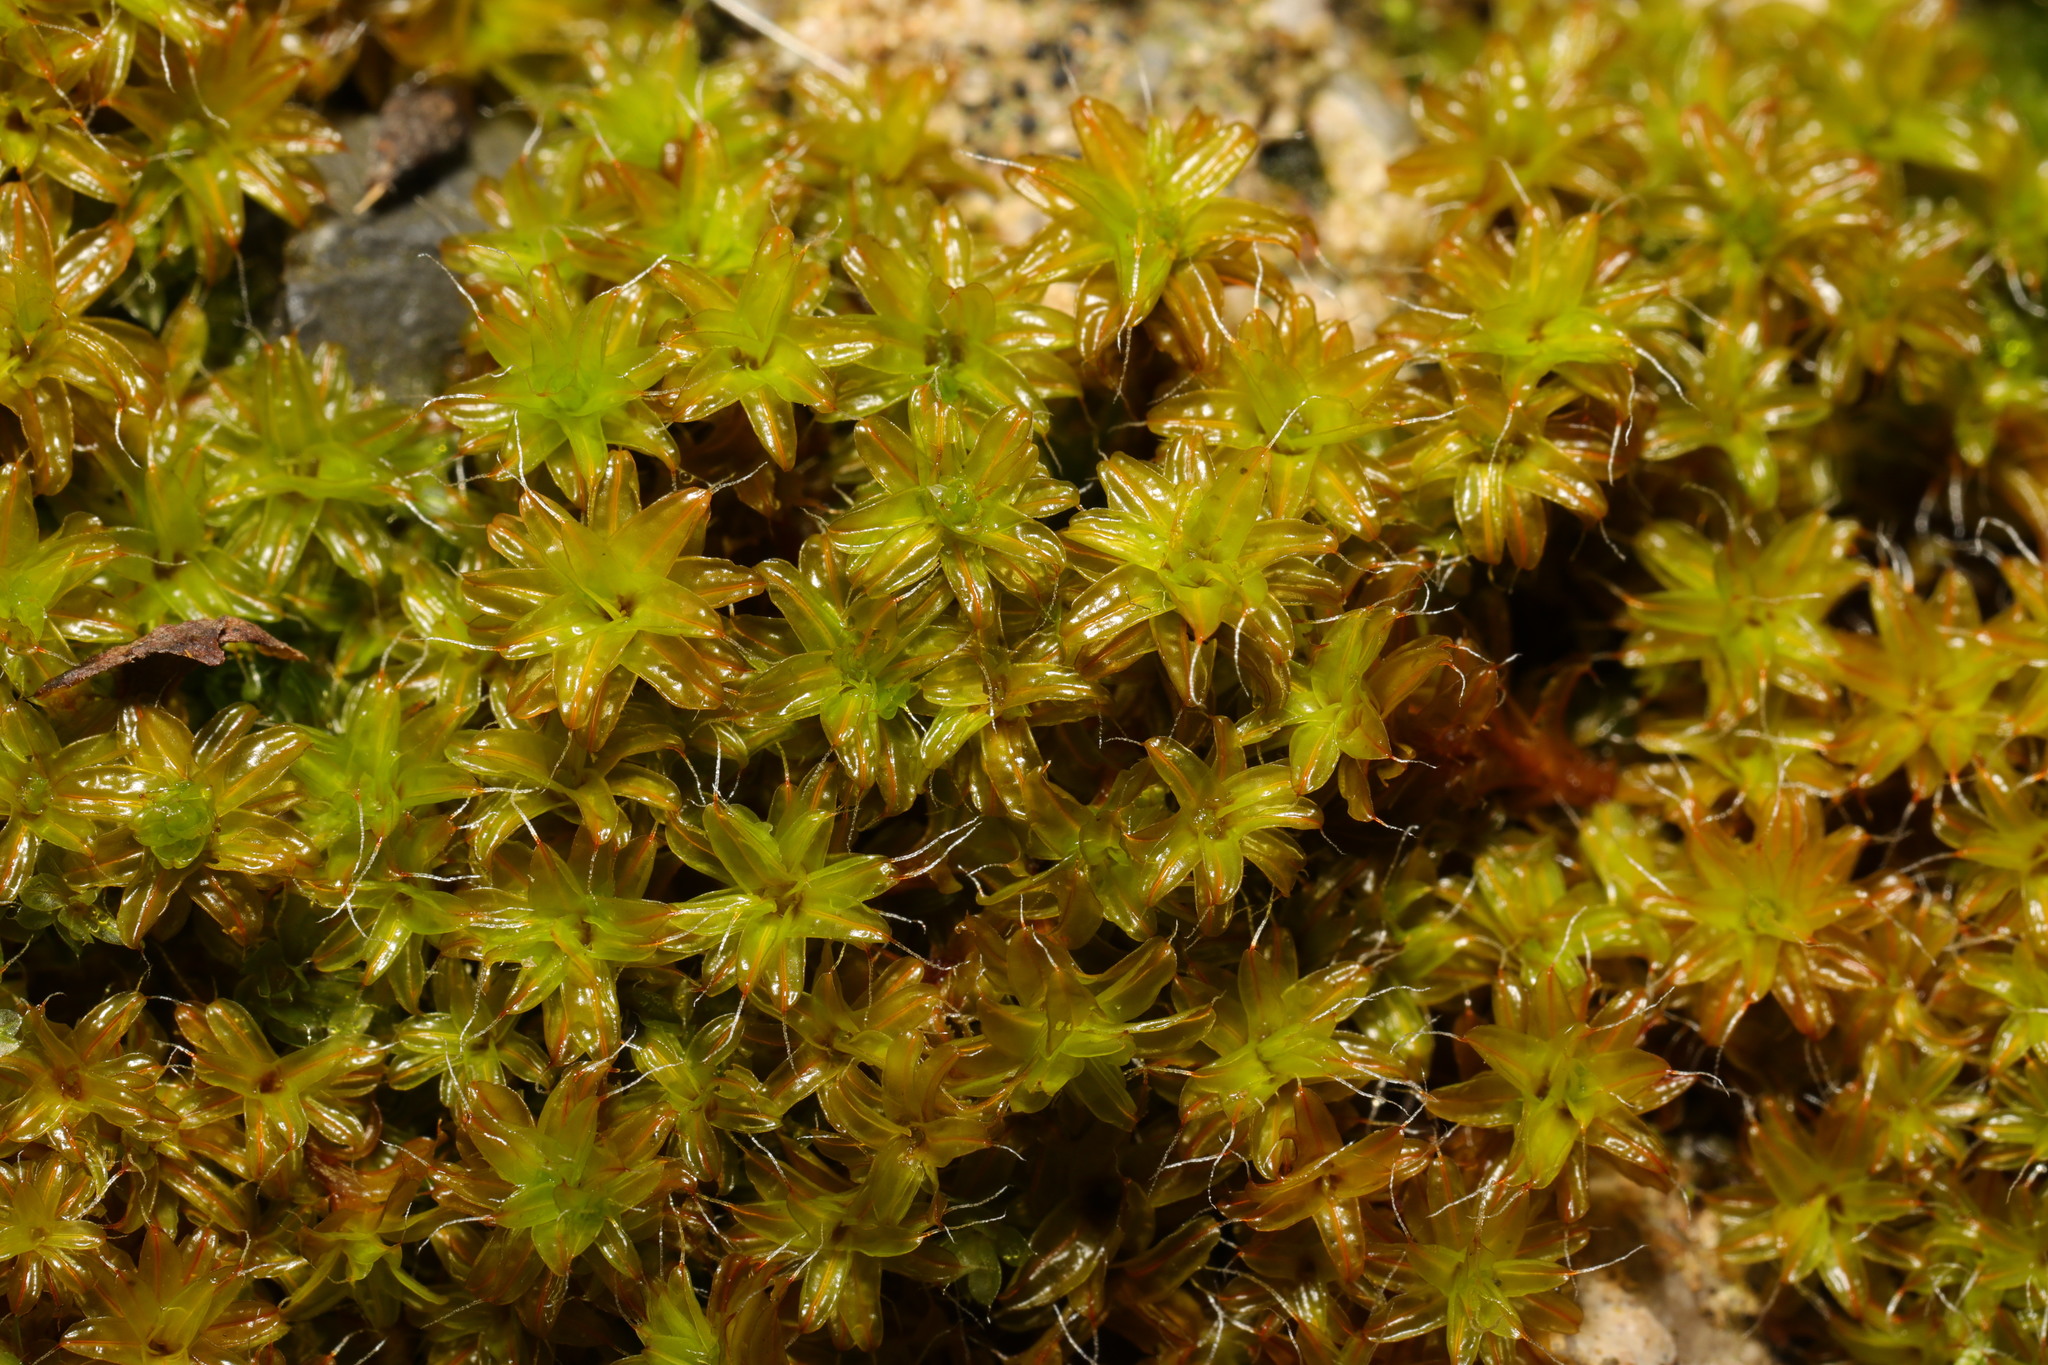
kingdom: Plantae
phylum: Bryophyta
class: Bryopsida
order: Pottiales
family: Pottiaceae
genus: Syntrichia
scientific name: Syntrichia ruralis
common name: Sidewalk screw moss
